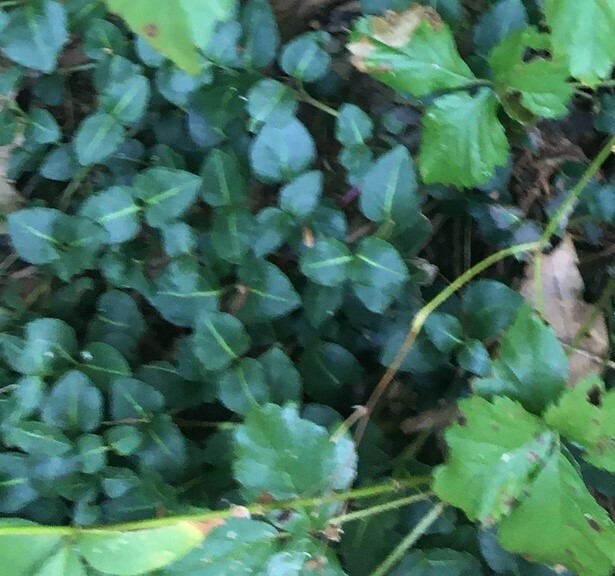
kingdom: Plantae
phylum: Tracheophyta
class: Magnoliopsida
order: Gentianales
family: Rubiaceae
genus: Mitchella
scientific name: Mitchella repens
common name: Partridge-berry
